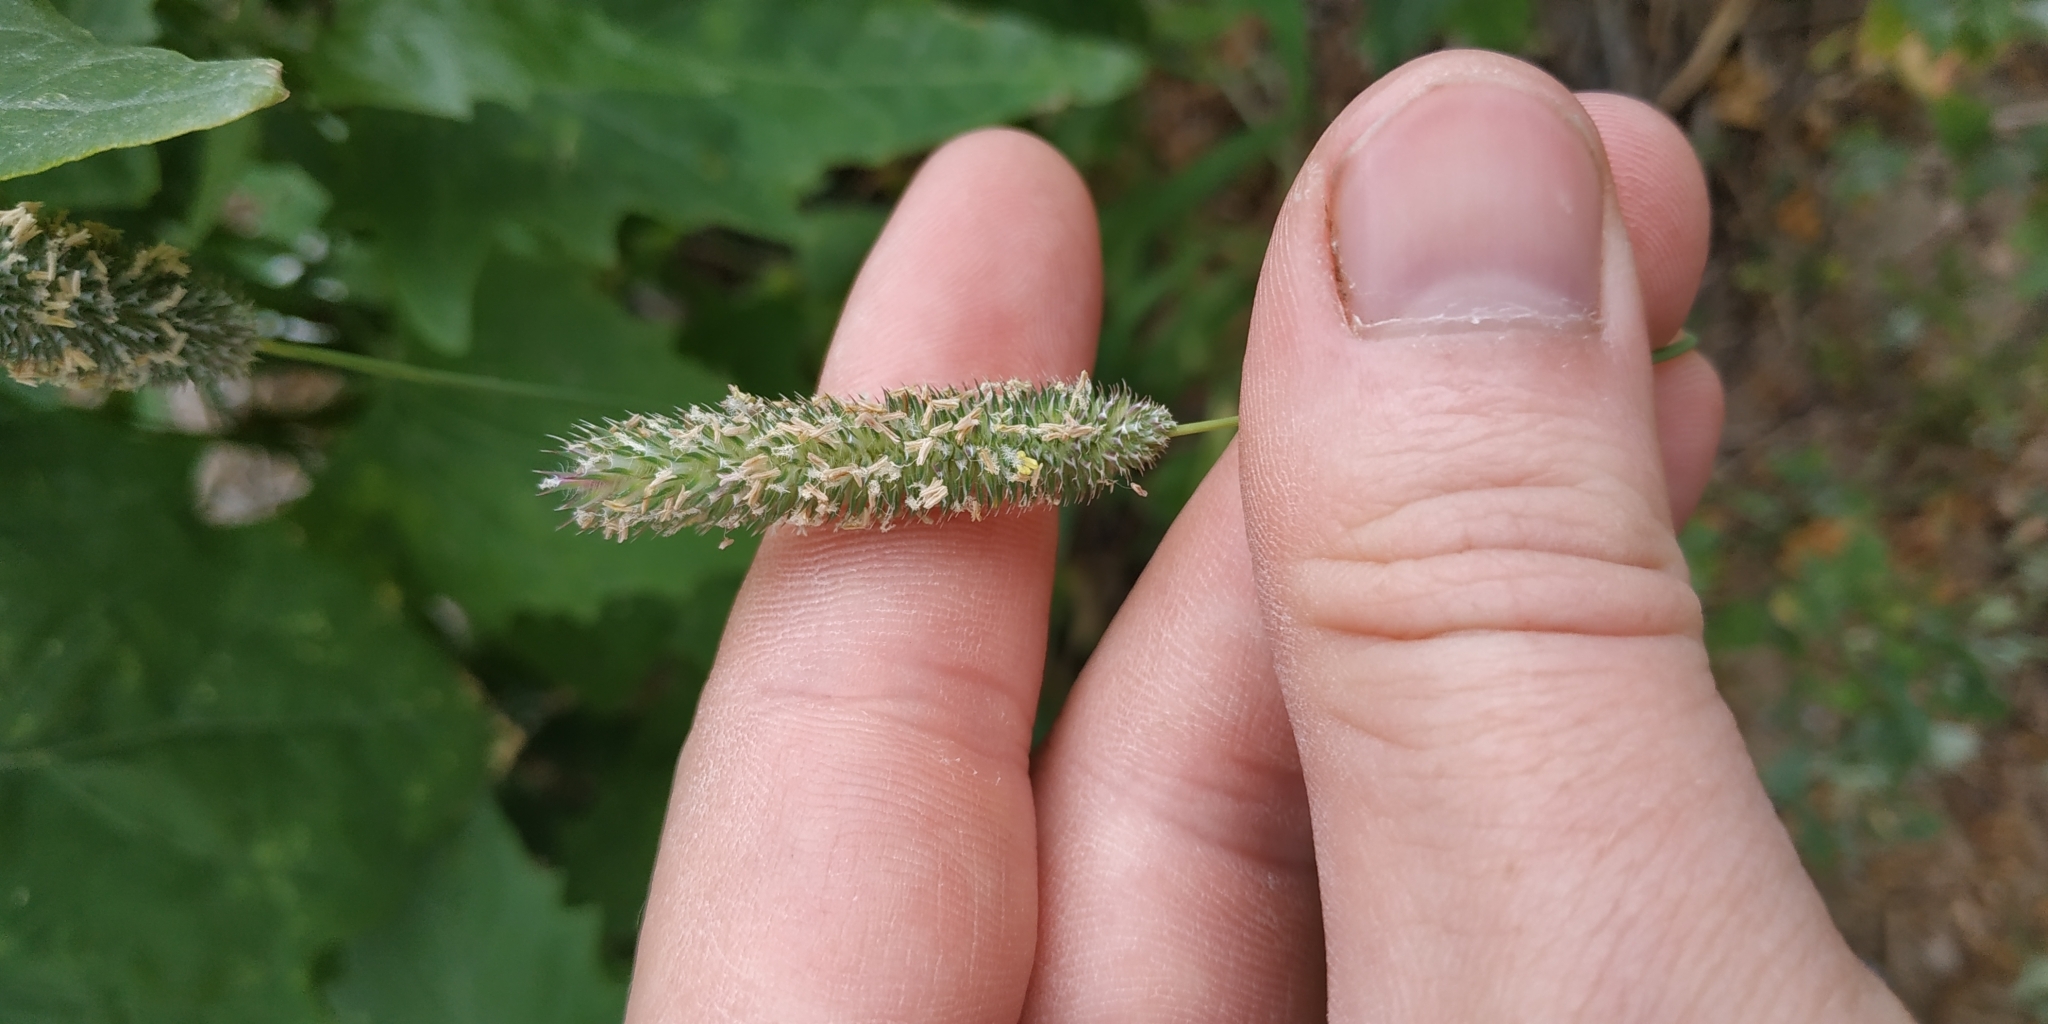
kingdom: Plantae
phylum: Tracheophyta
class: Liliopsida
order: Poales
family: Poaceae
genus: Phleum
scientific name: Phleum pratense
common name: Timothy grass
